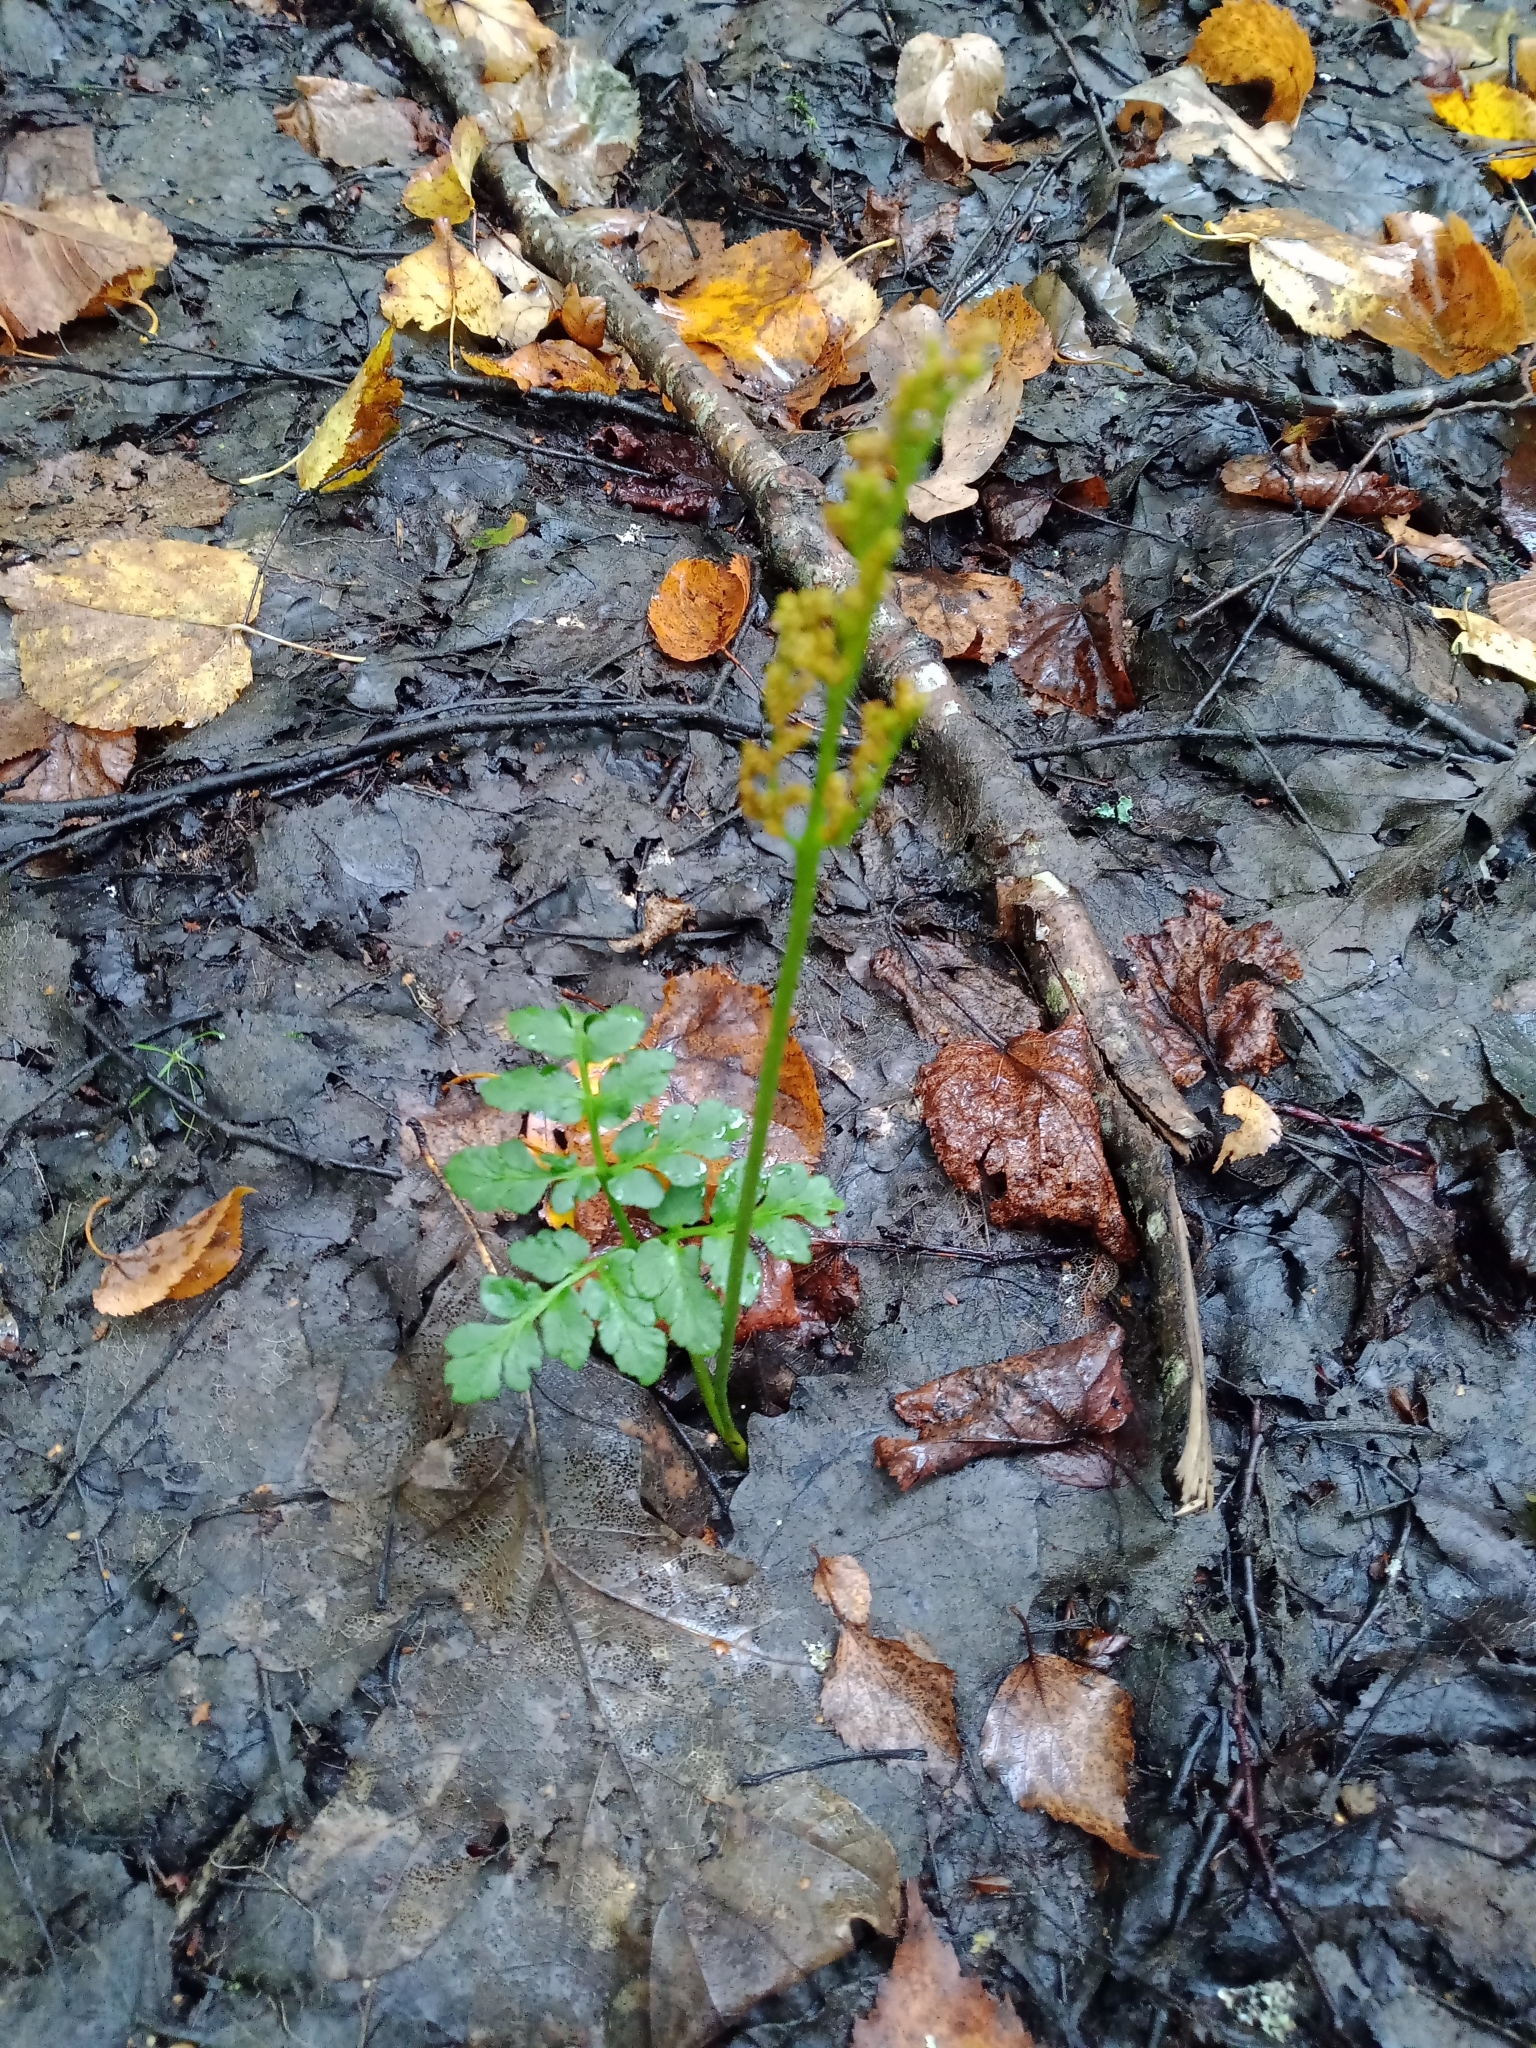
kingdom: Plantae
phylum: Tracheophyta
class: Polypodiopsida
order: Ophioglossales
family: Ophioglossaceae
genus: Sceptridium
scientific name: Sceptridium multifidum
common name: Leathery grape fern
